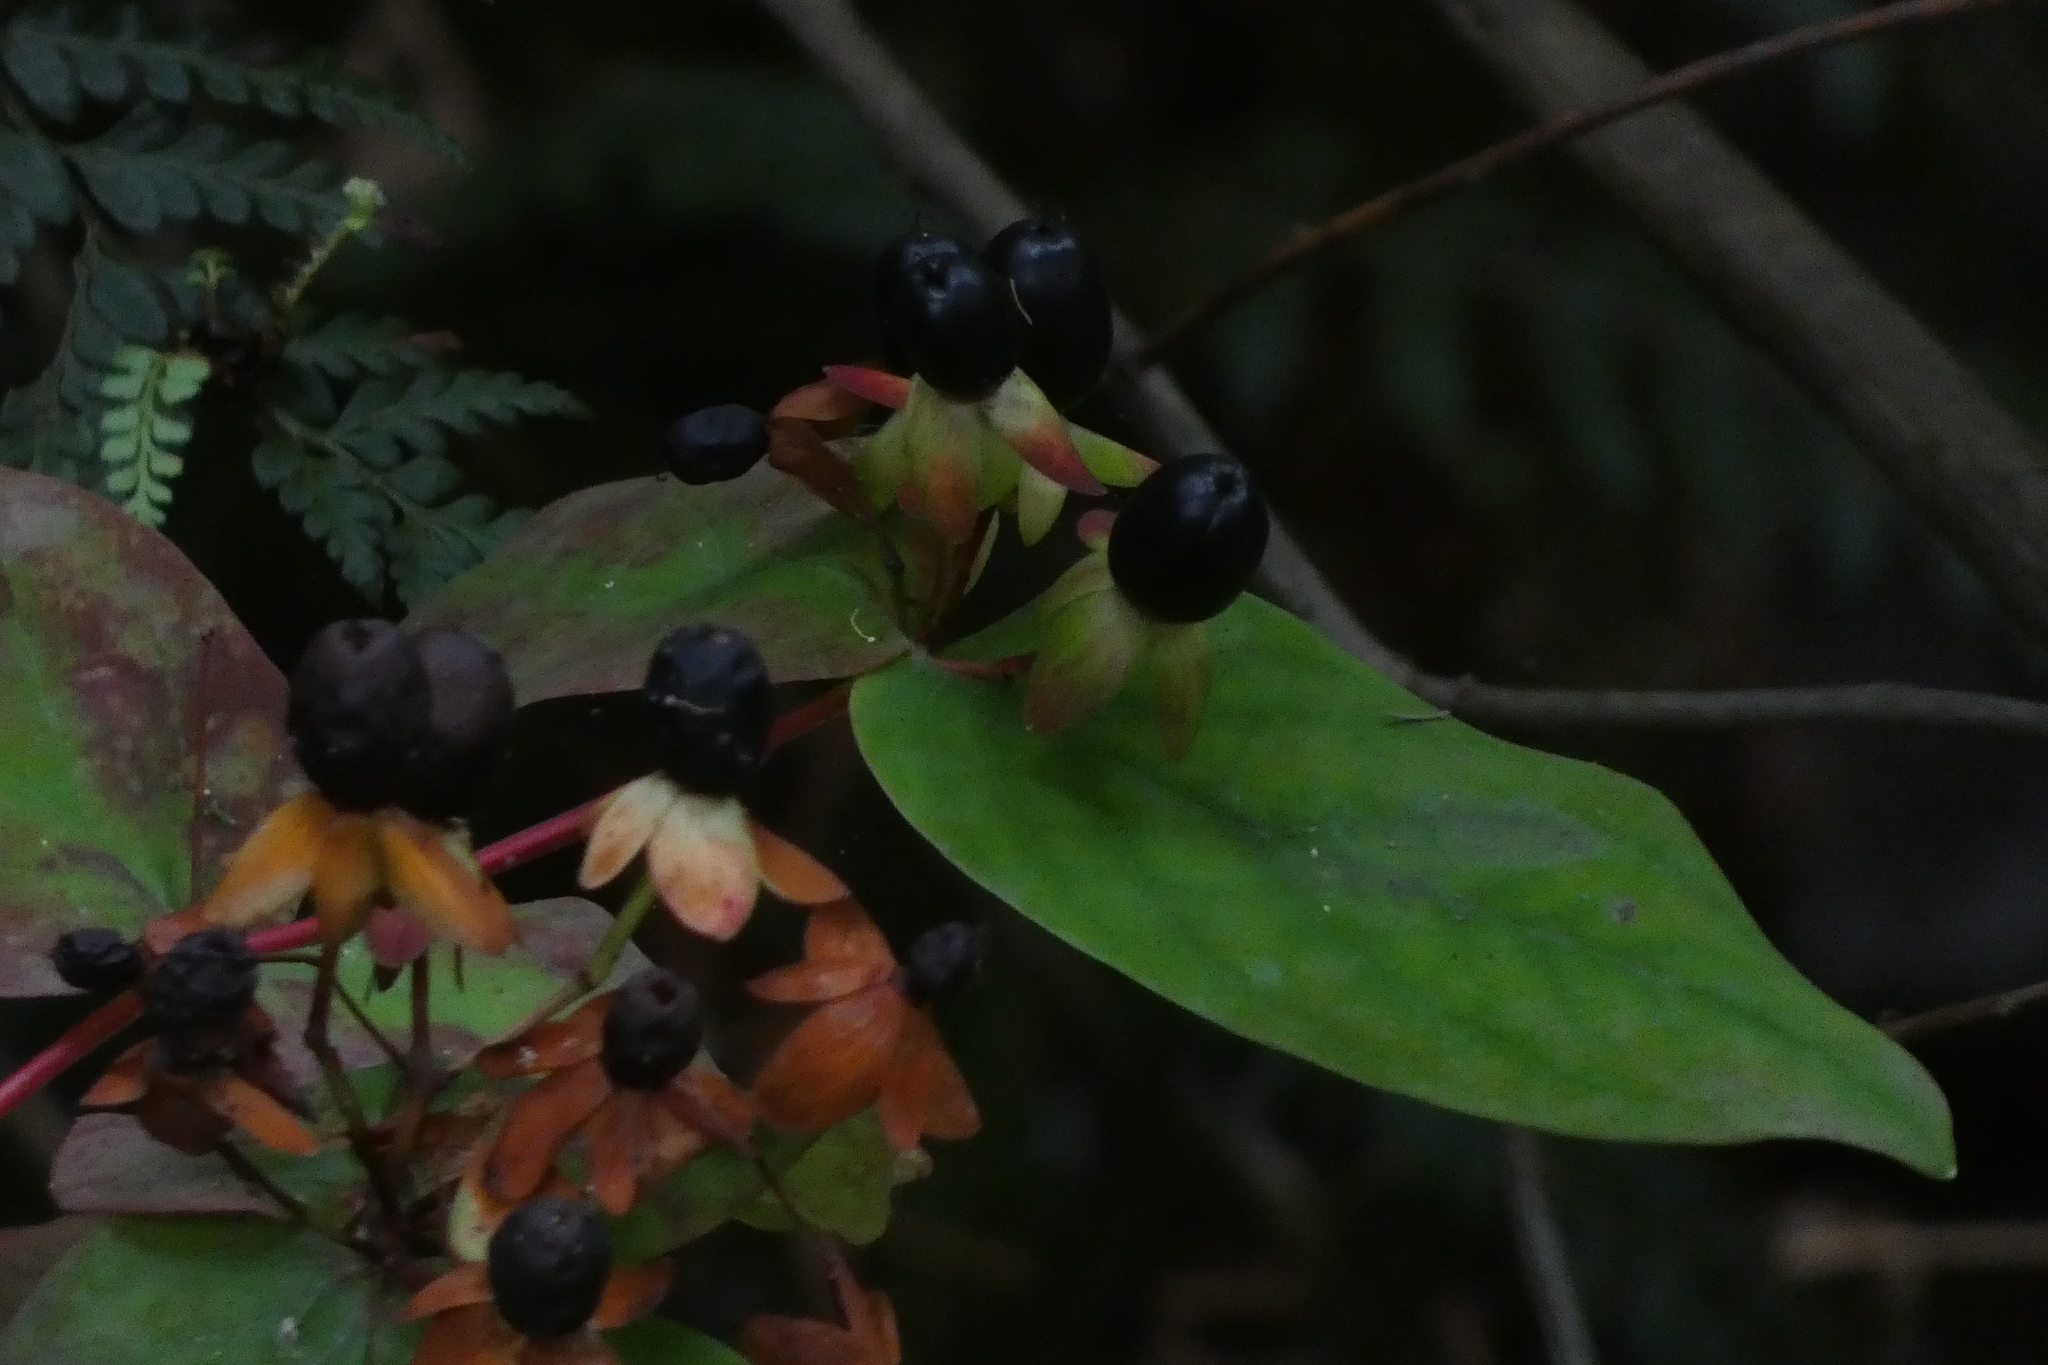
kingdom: Plantae
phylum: Tracheophyta
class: Magnoliopsida
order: Malpighiales
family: Hypericaceae
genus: Hypericum
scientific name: Hypericum androsaemum
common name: Sweet-amber
